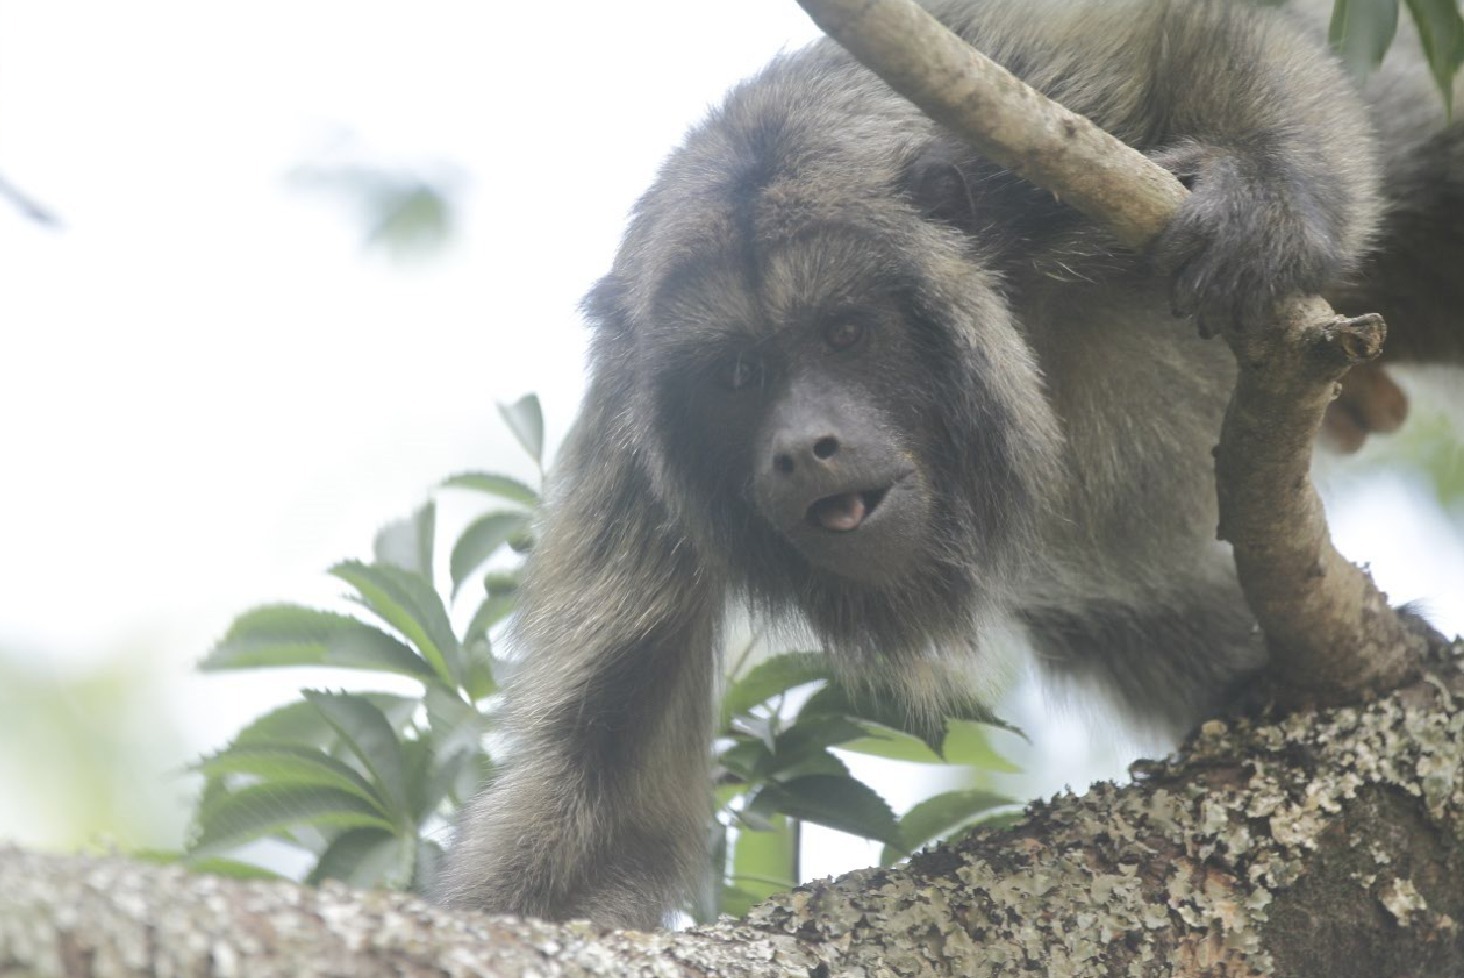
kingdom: Animalia
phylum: Chordata
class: Mammalia
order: Primates
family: Atelidae
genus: Alouatta
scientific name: Alouatta caraya
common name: Black howler
